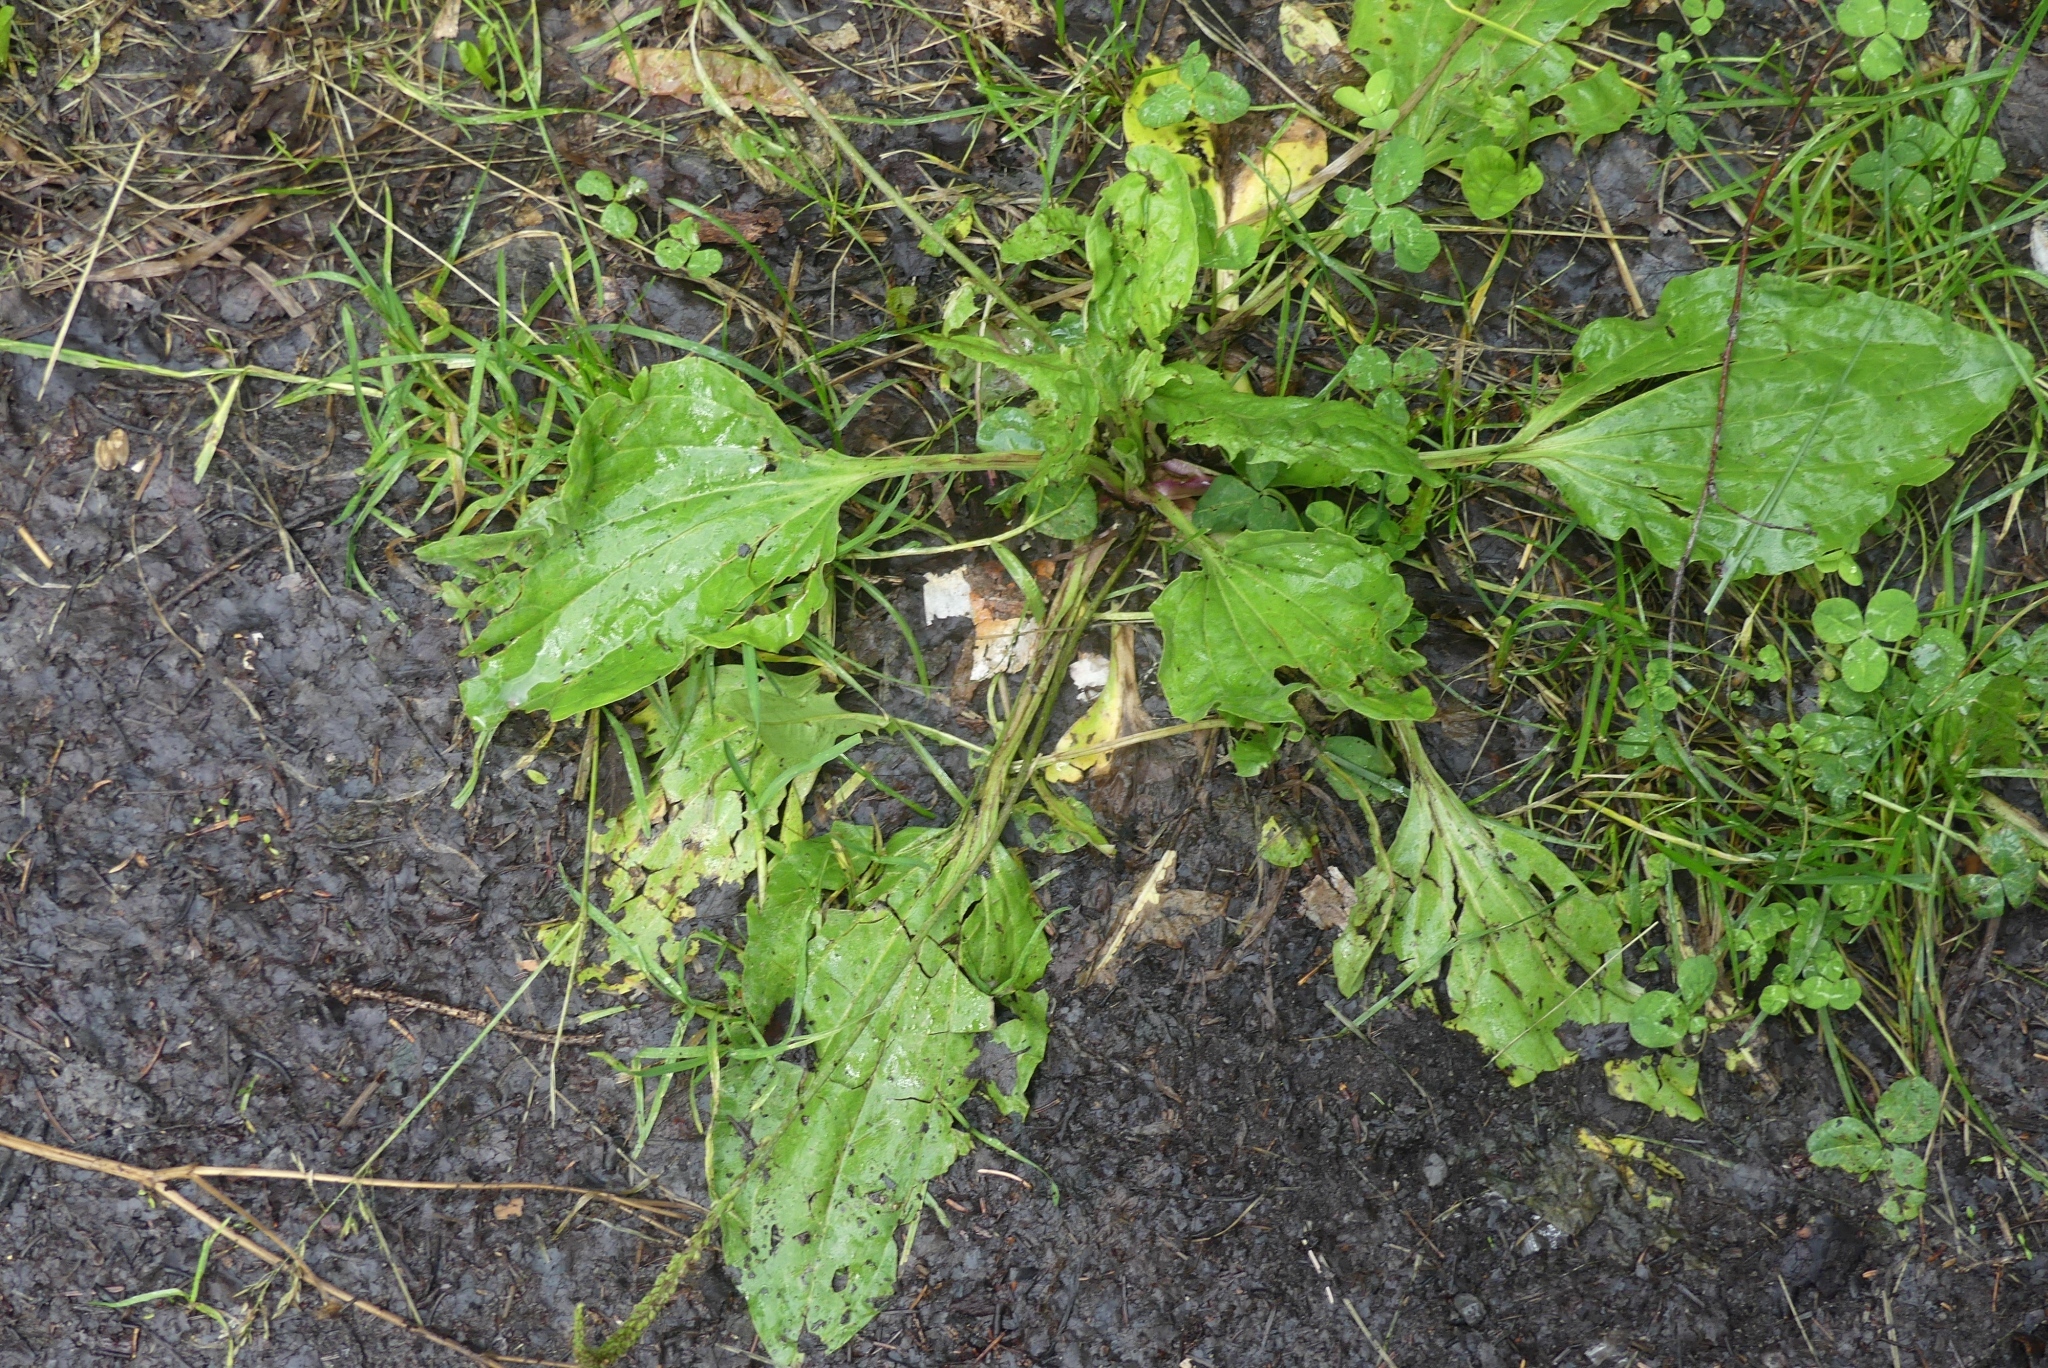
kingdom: Plantae
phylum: Tracheophyta
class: Magnoliopsida
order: Lamiales
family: Plantaginaceae
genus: Plantago
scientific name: Plantago major
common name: Common plantain
